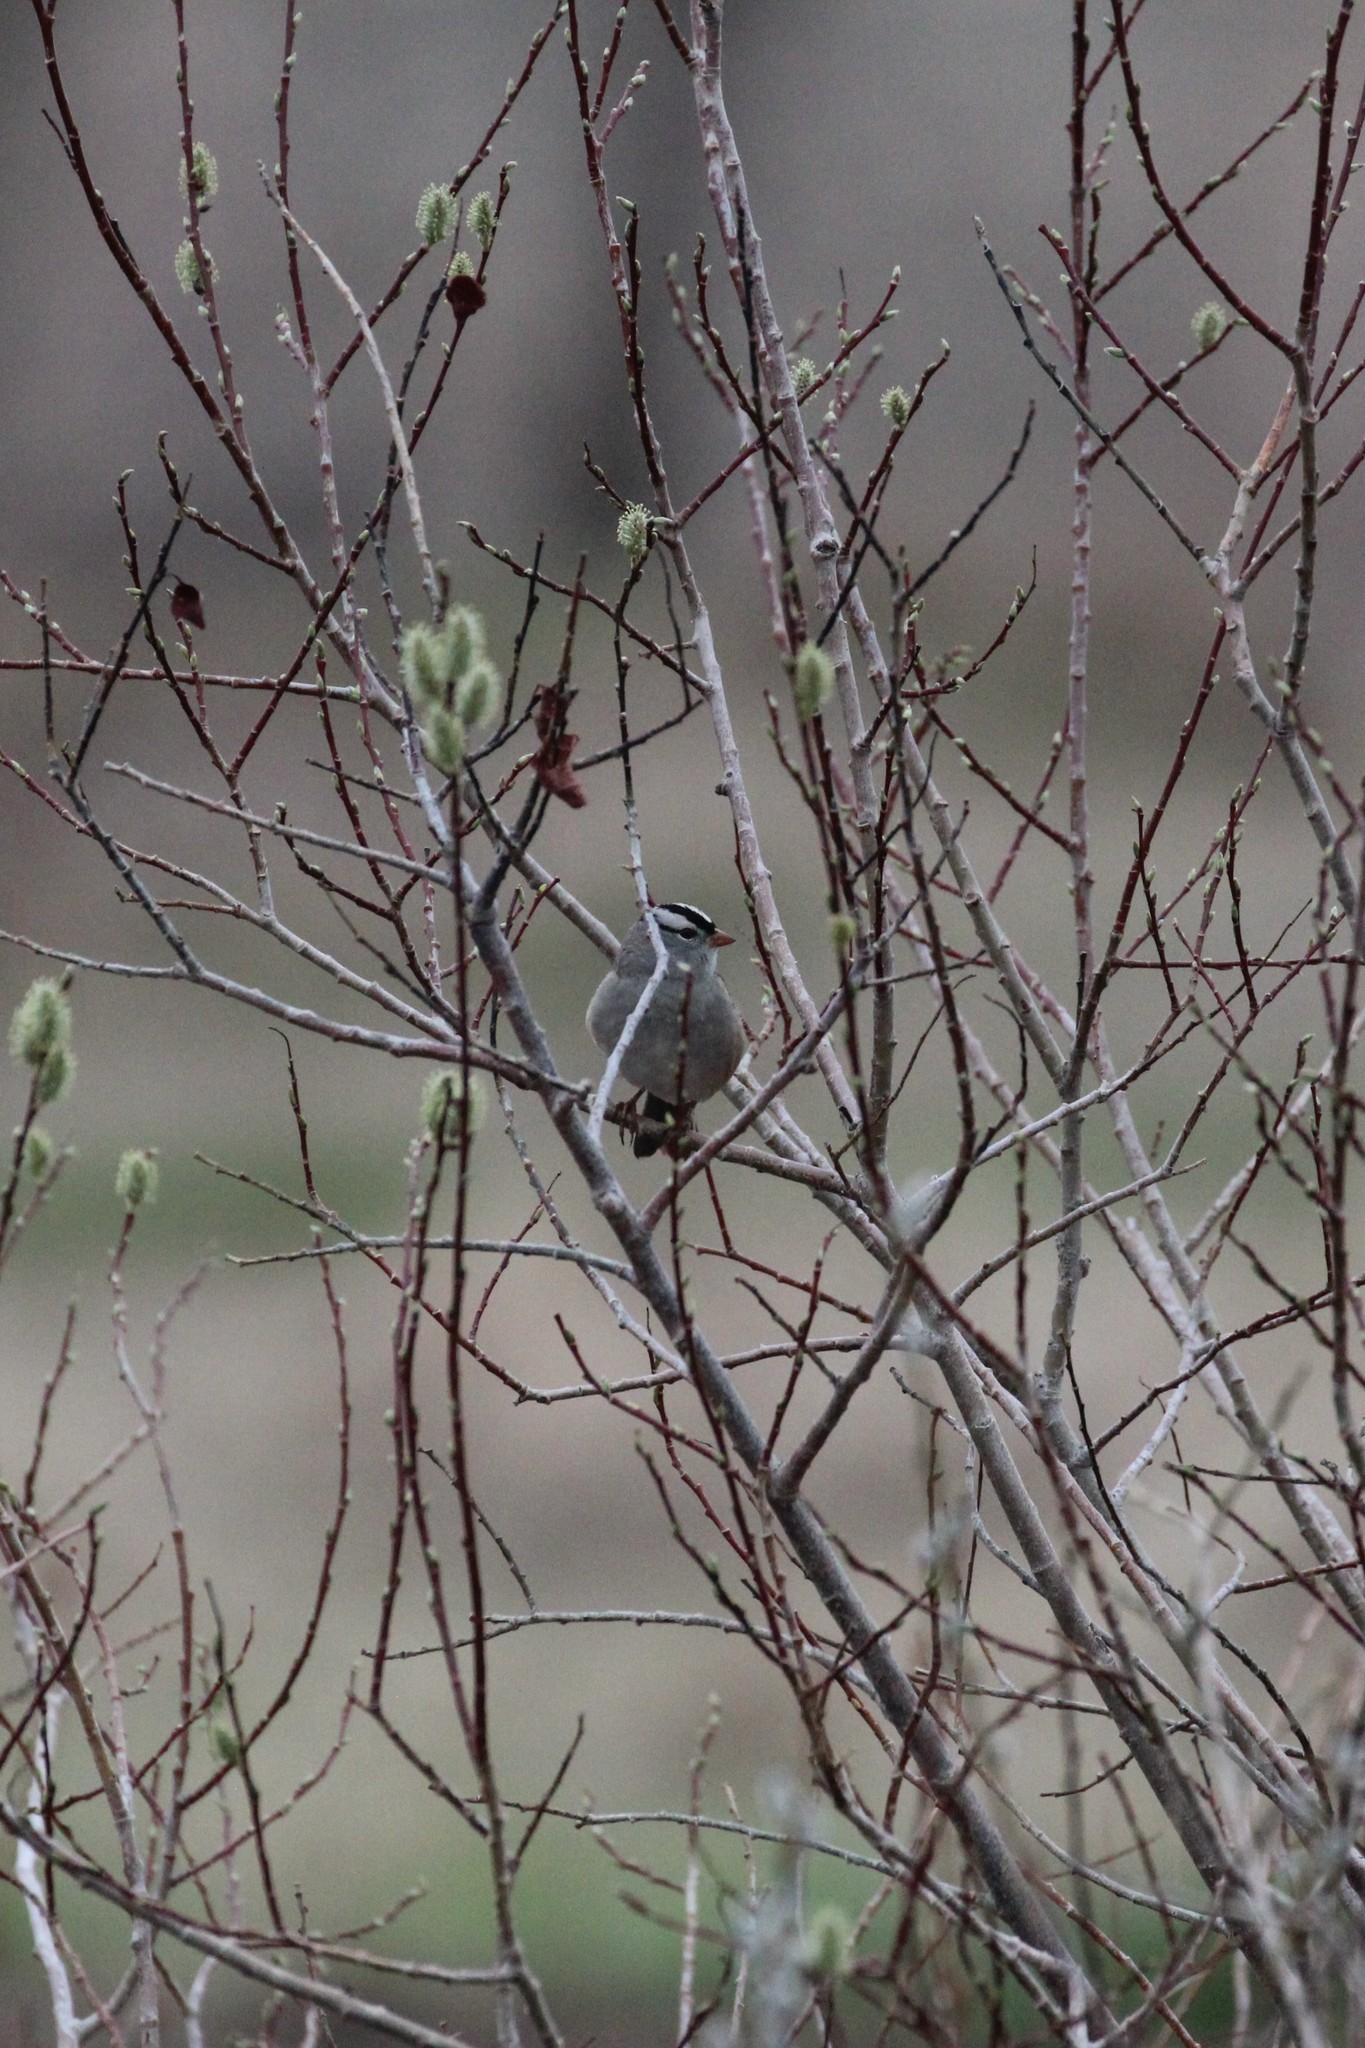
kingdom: Animalia
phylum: Chordata
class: Aves
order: Passeriformes
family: Passerellidae
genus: Zonotrichia
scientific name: Zonotrichia leucophrys
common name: White-crowned sparrow
